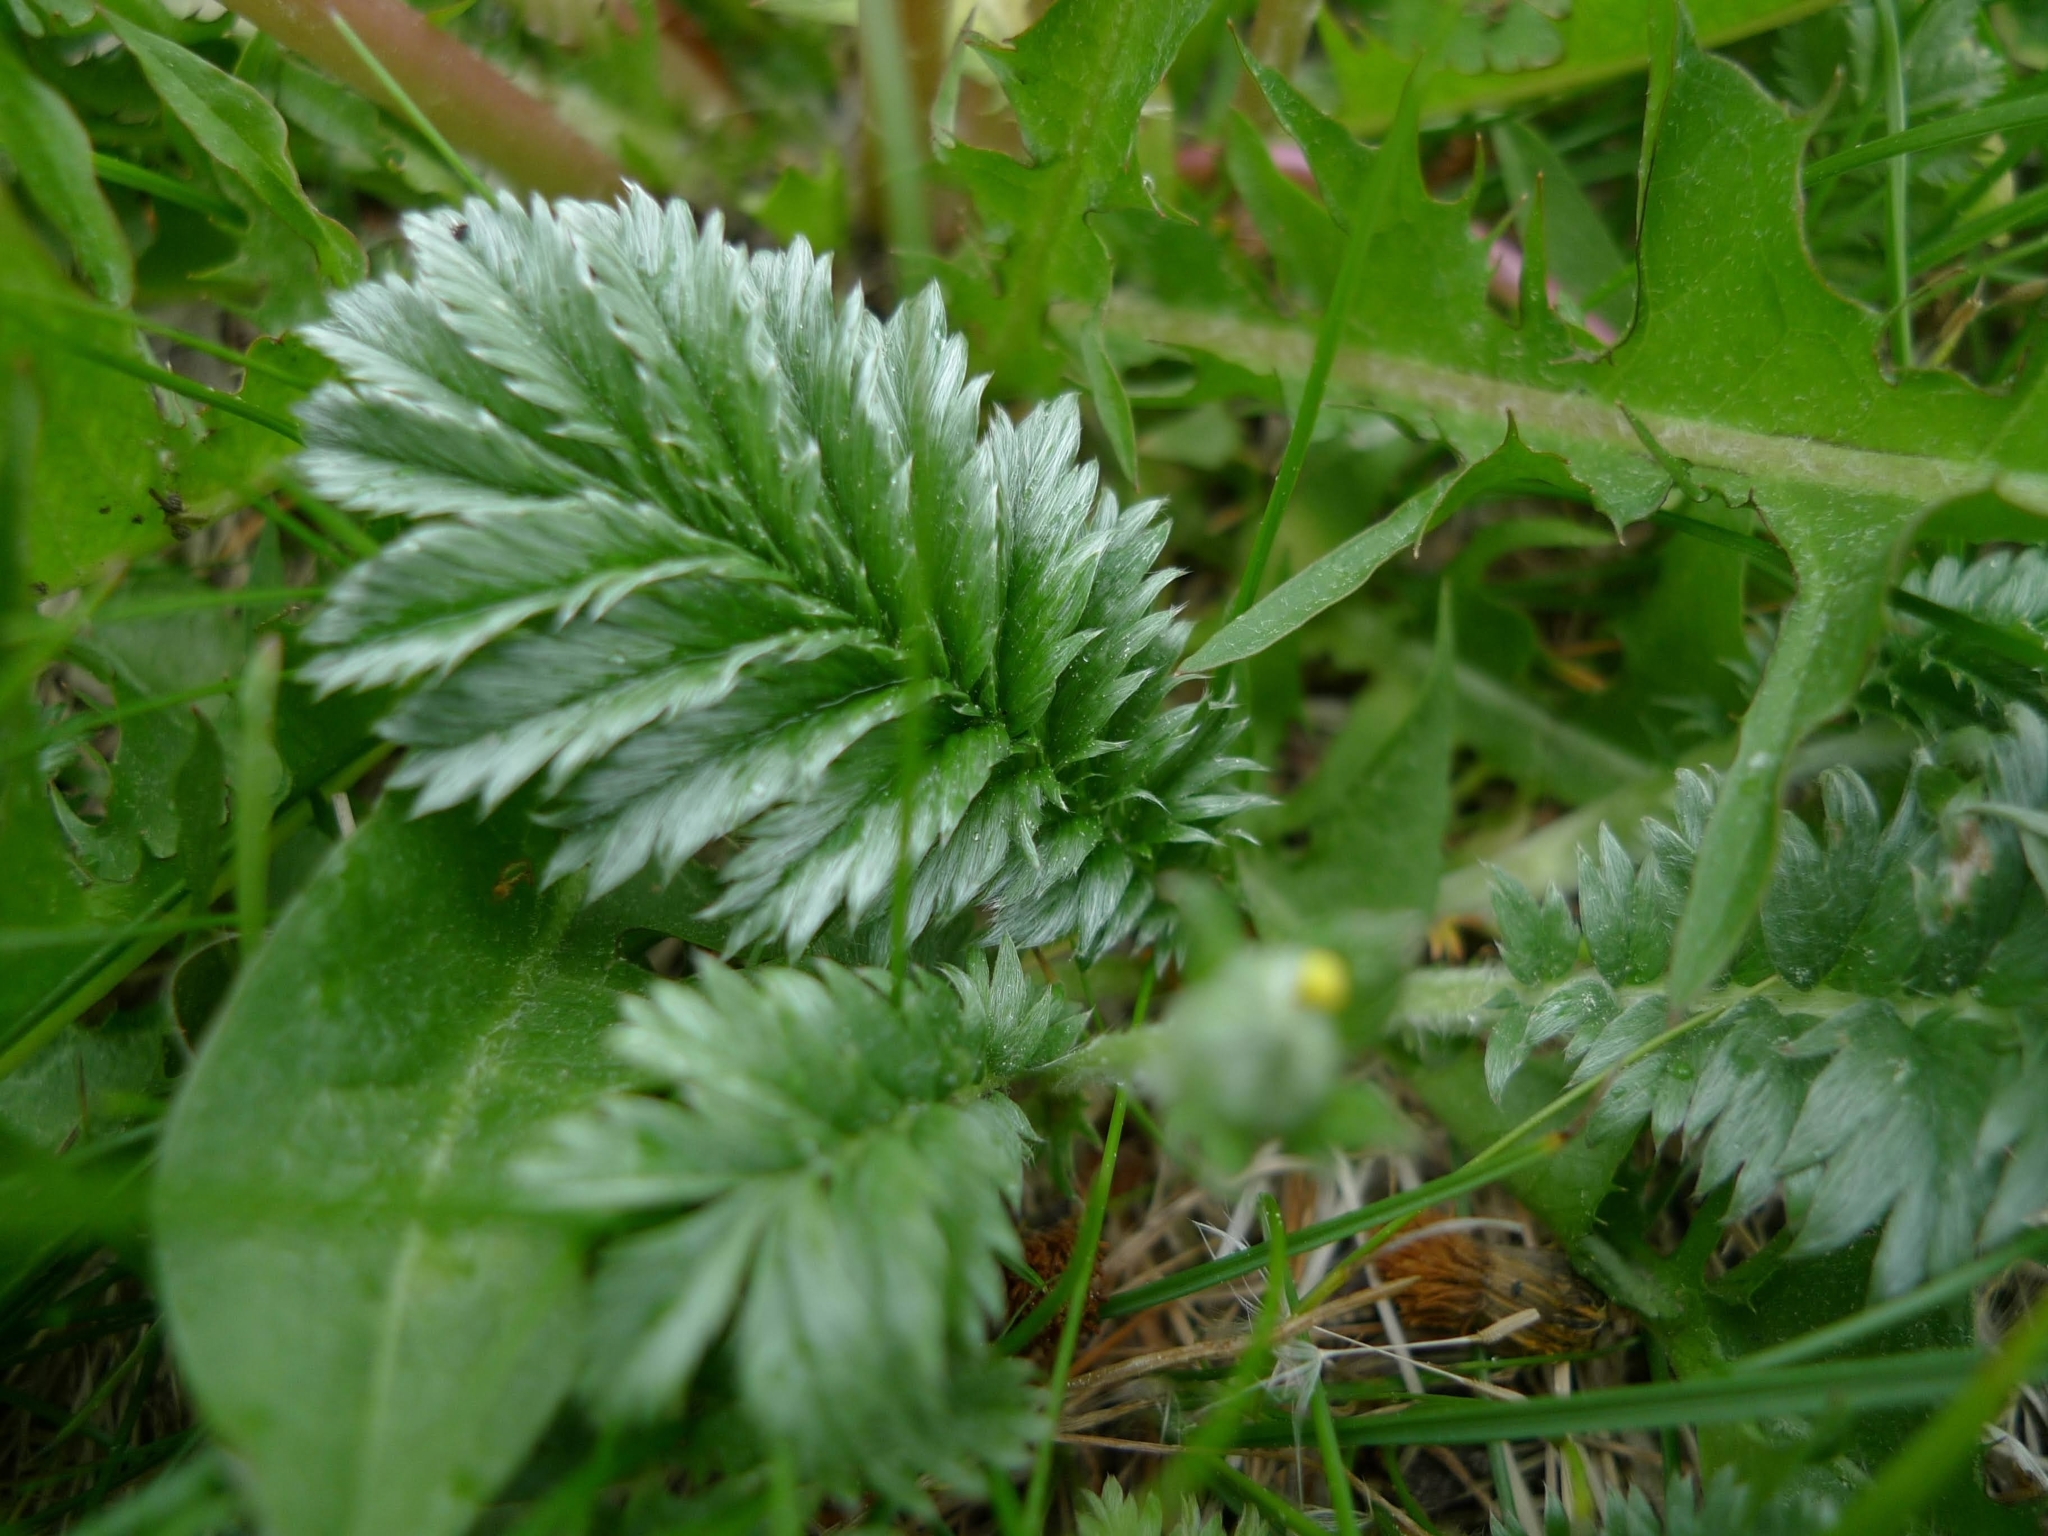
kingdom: Plantae
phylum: Tracheophyta
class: Magnoliopsida
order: Rosales
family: Rosaceae
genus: Argentina
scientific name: Argentina anserina
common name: Common silverweed
